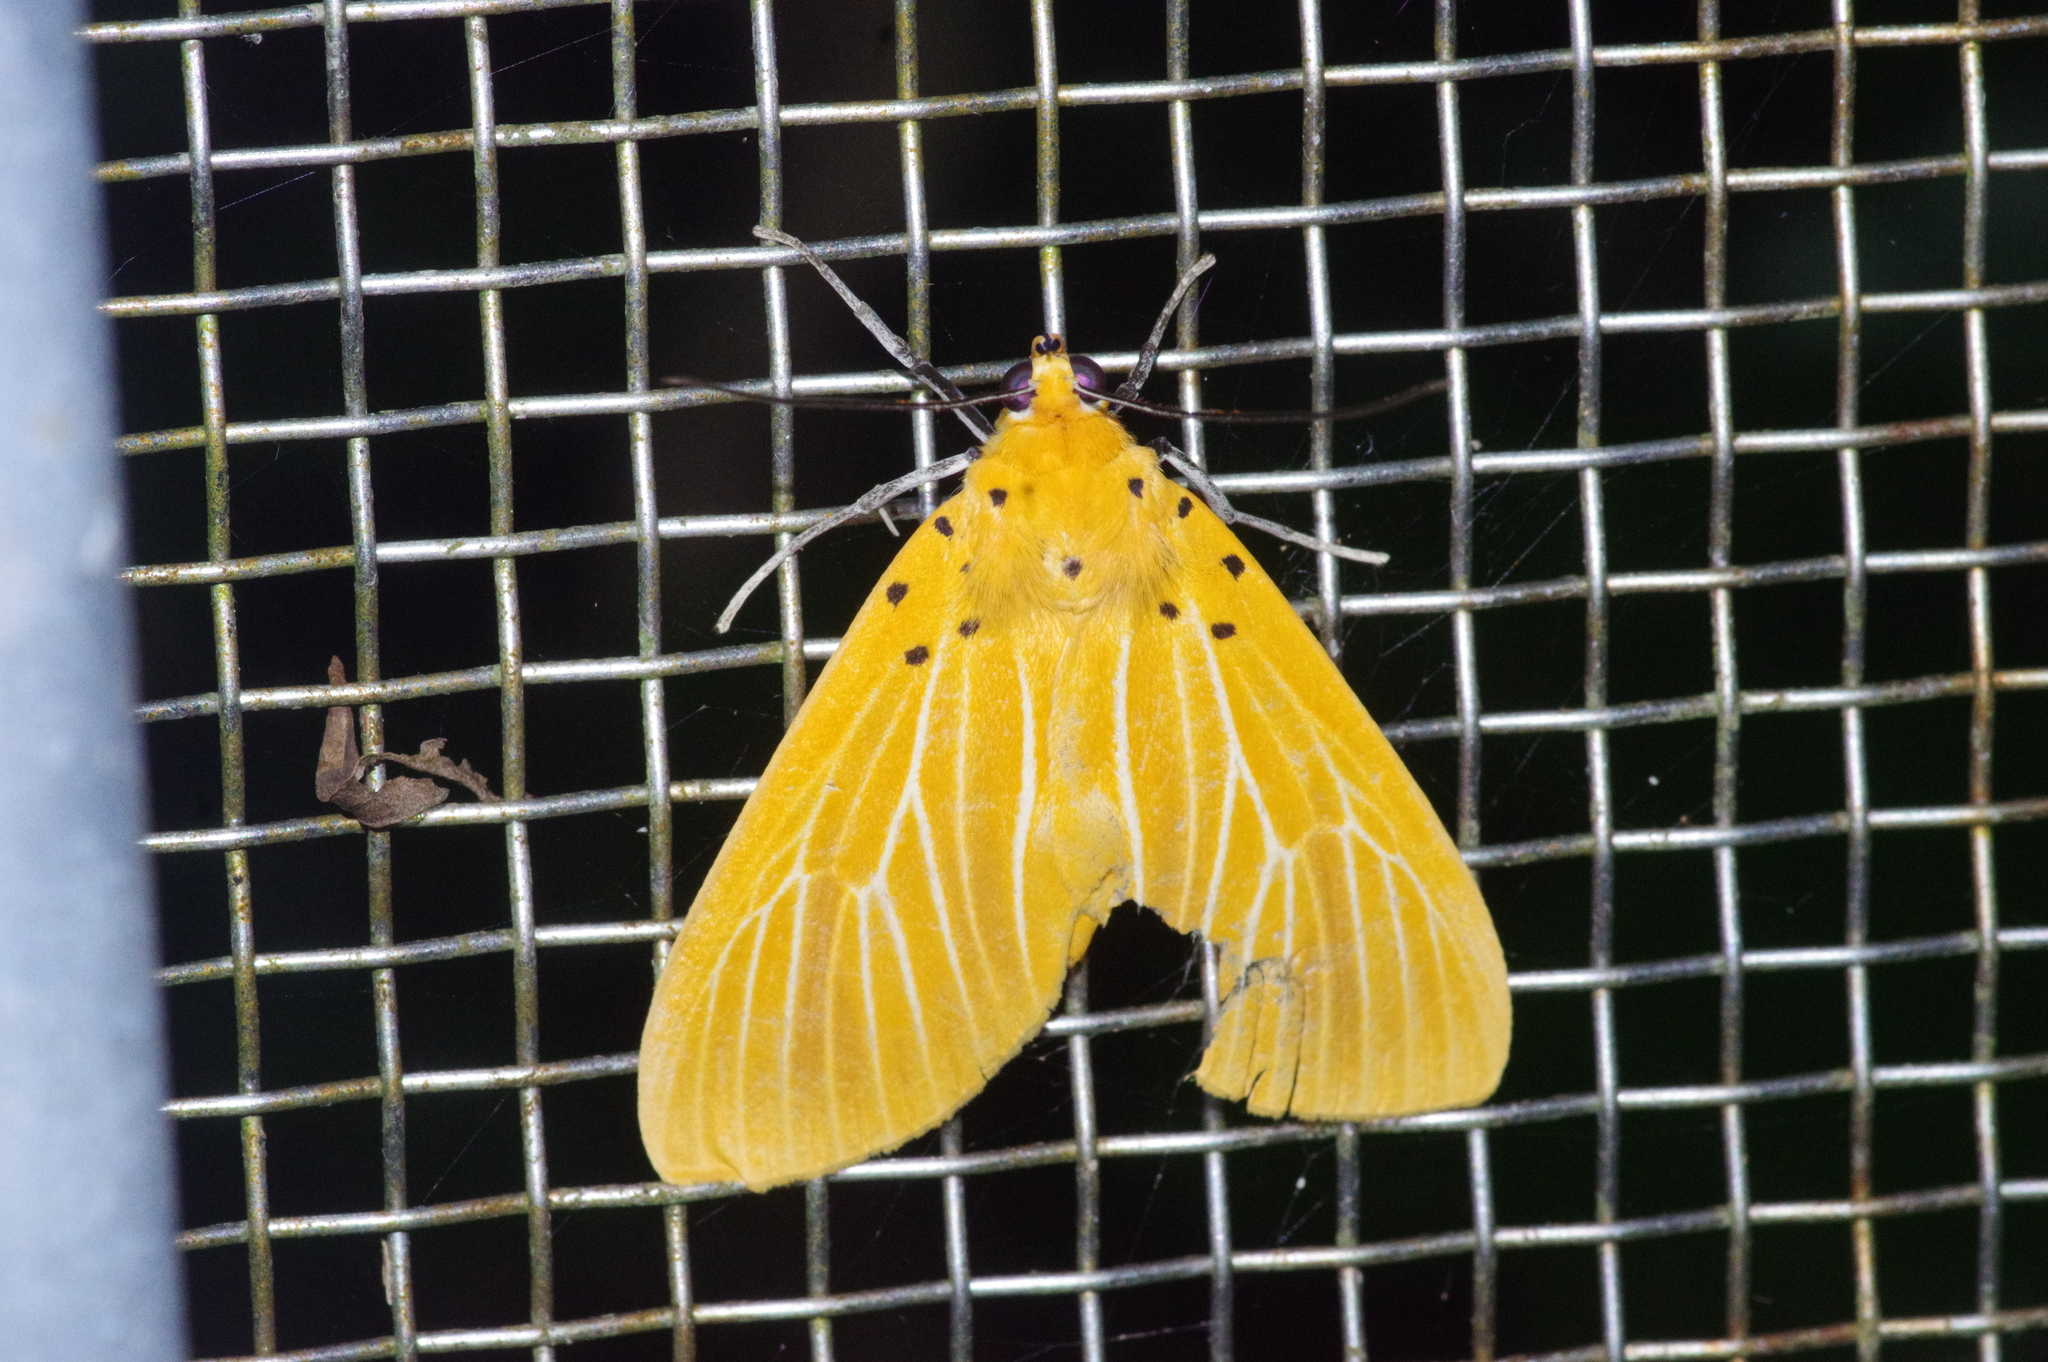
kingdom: Animalia
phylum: Arthropoda
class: Insecta
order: Lepidoptera
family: Erebidae
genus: Asota
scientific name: Asota egens
